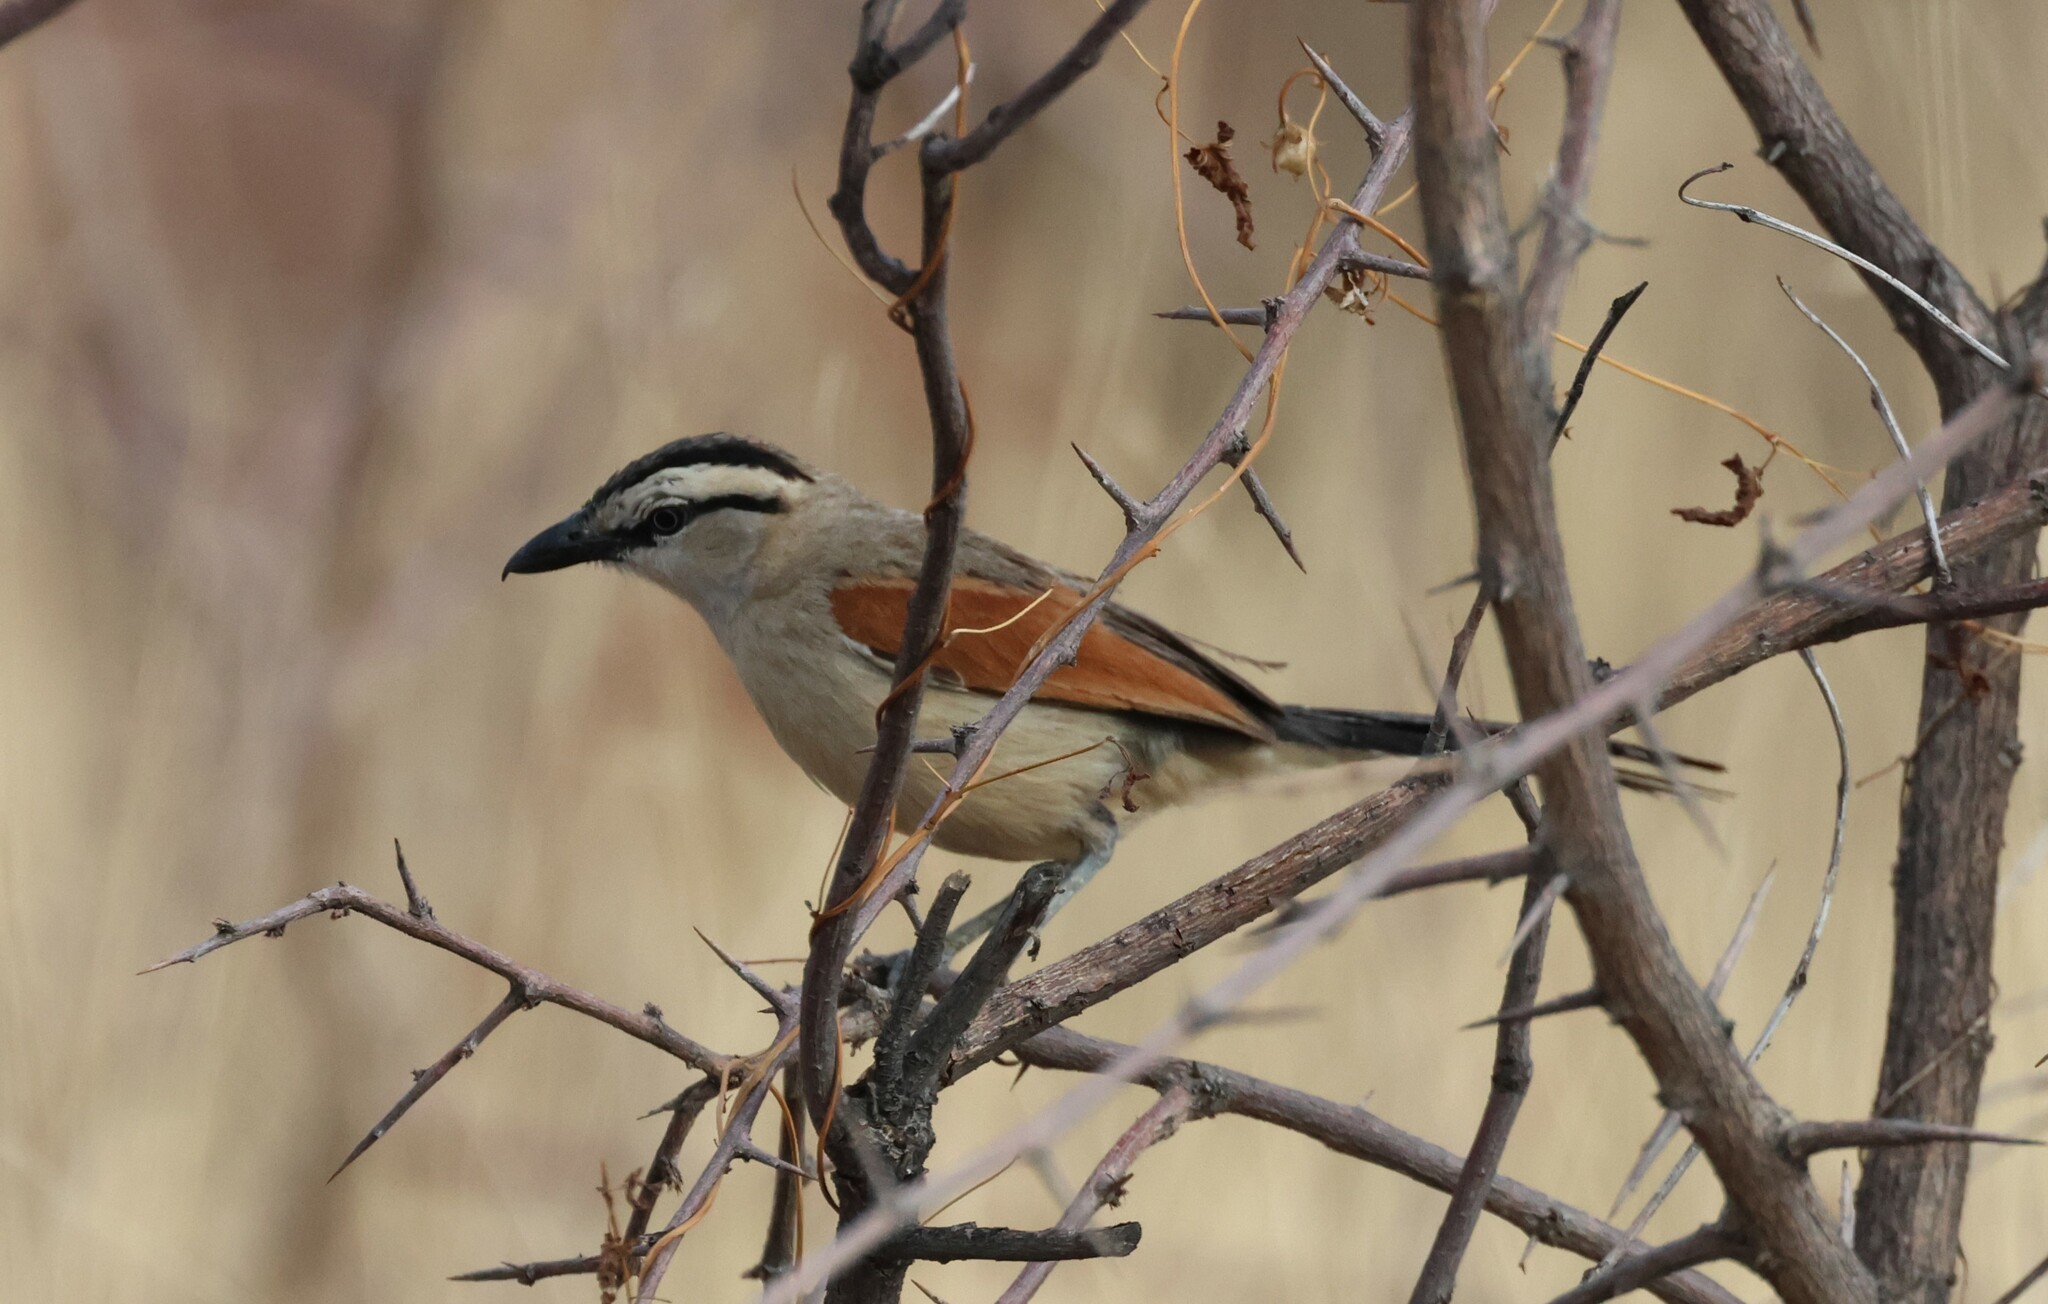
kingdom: Animalia
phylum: Chordata
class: Aves
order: Passeriformes
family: Malaconotidae
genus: Tchagra
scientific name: Tchagra australis
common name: Brown-crowned tchagra
